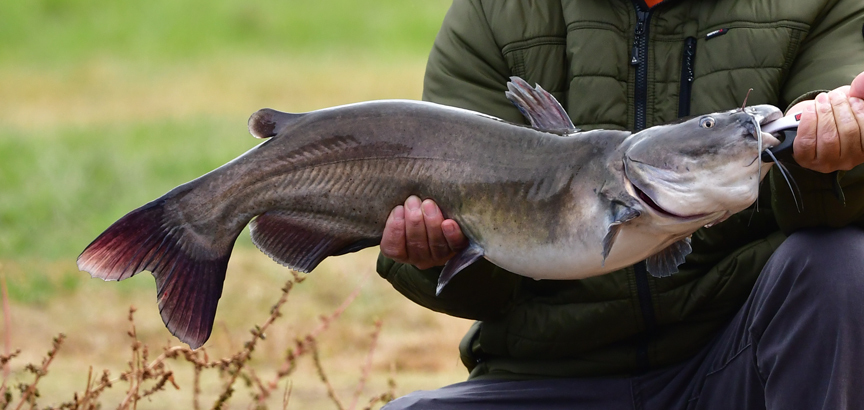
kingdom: Animalia
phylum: Chordata
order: Siluriformes
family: Ictaluridae
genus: Ictalurus
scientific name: Ictalurus punctatus
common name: Channel catfish
